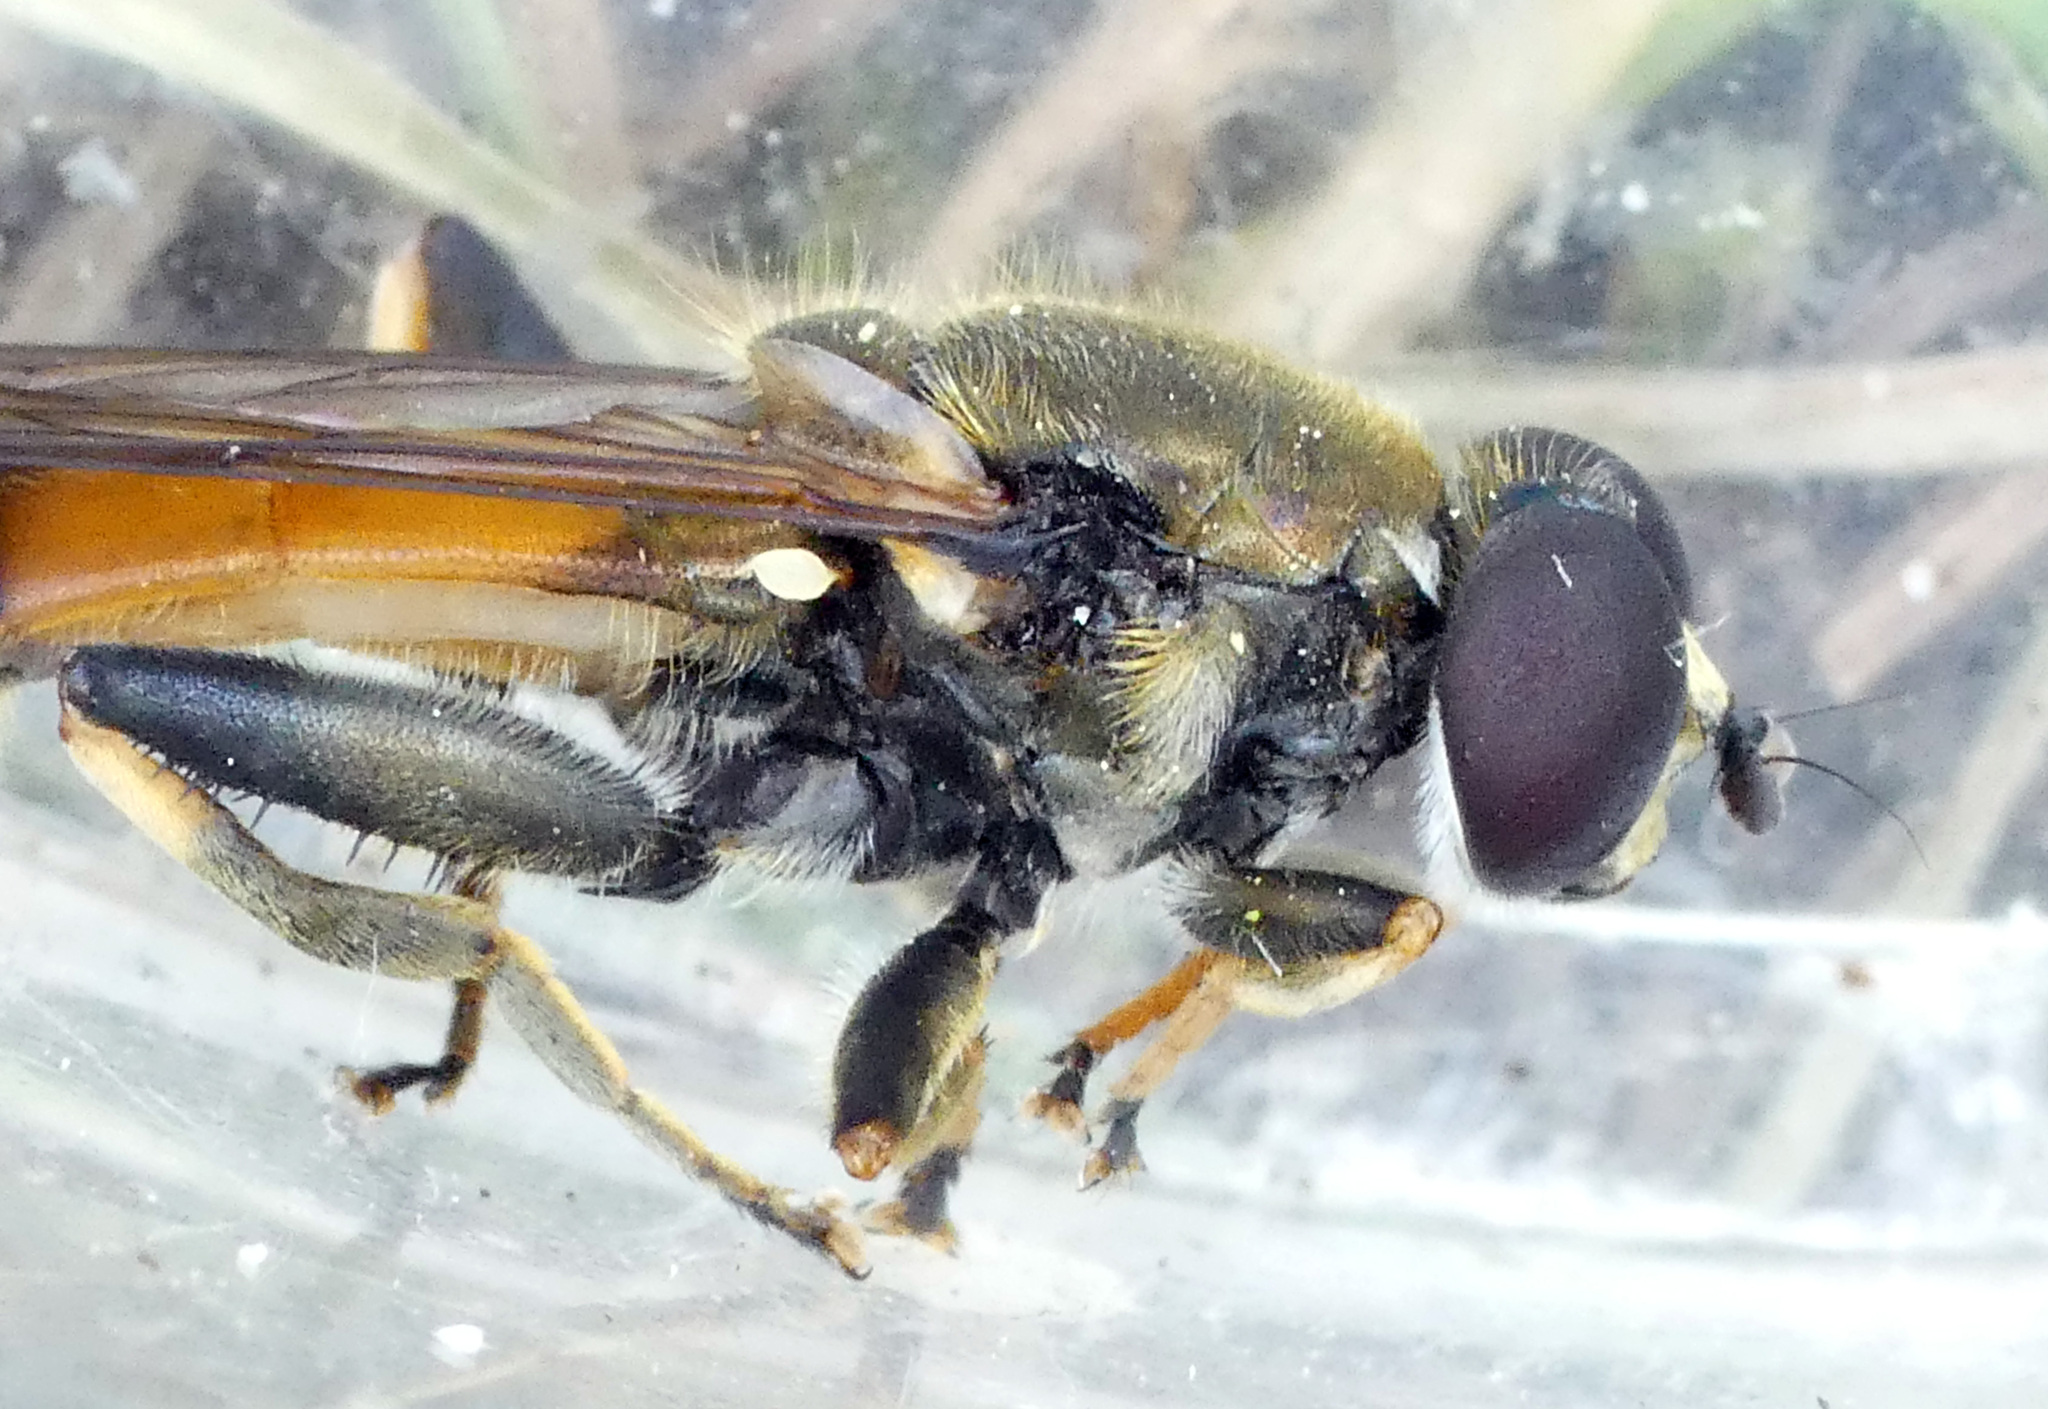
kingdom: Animalia
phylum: Arthropoda
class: Insecta
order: Diptera
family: Syrphidae
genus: Xylota
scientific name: Xylota segnis
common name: Brown-toed forest fly
